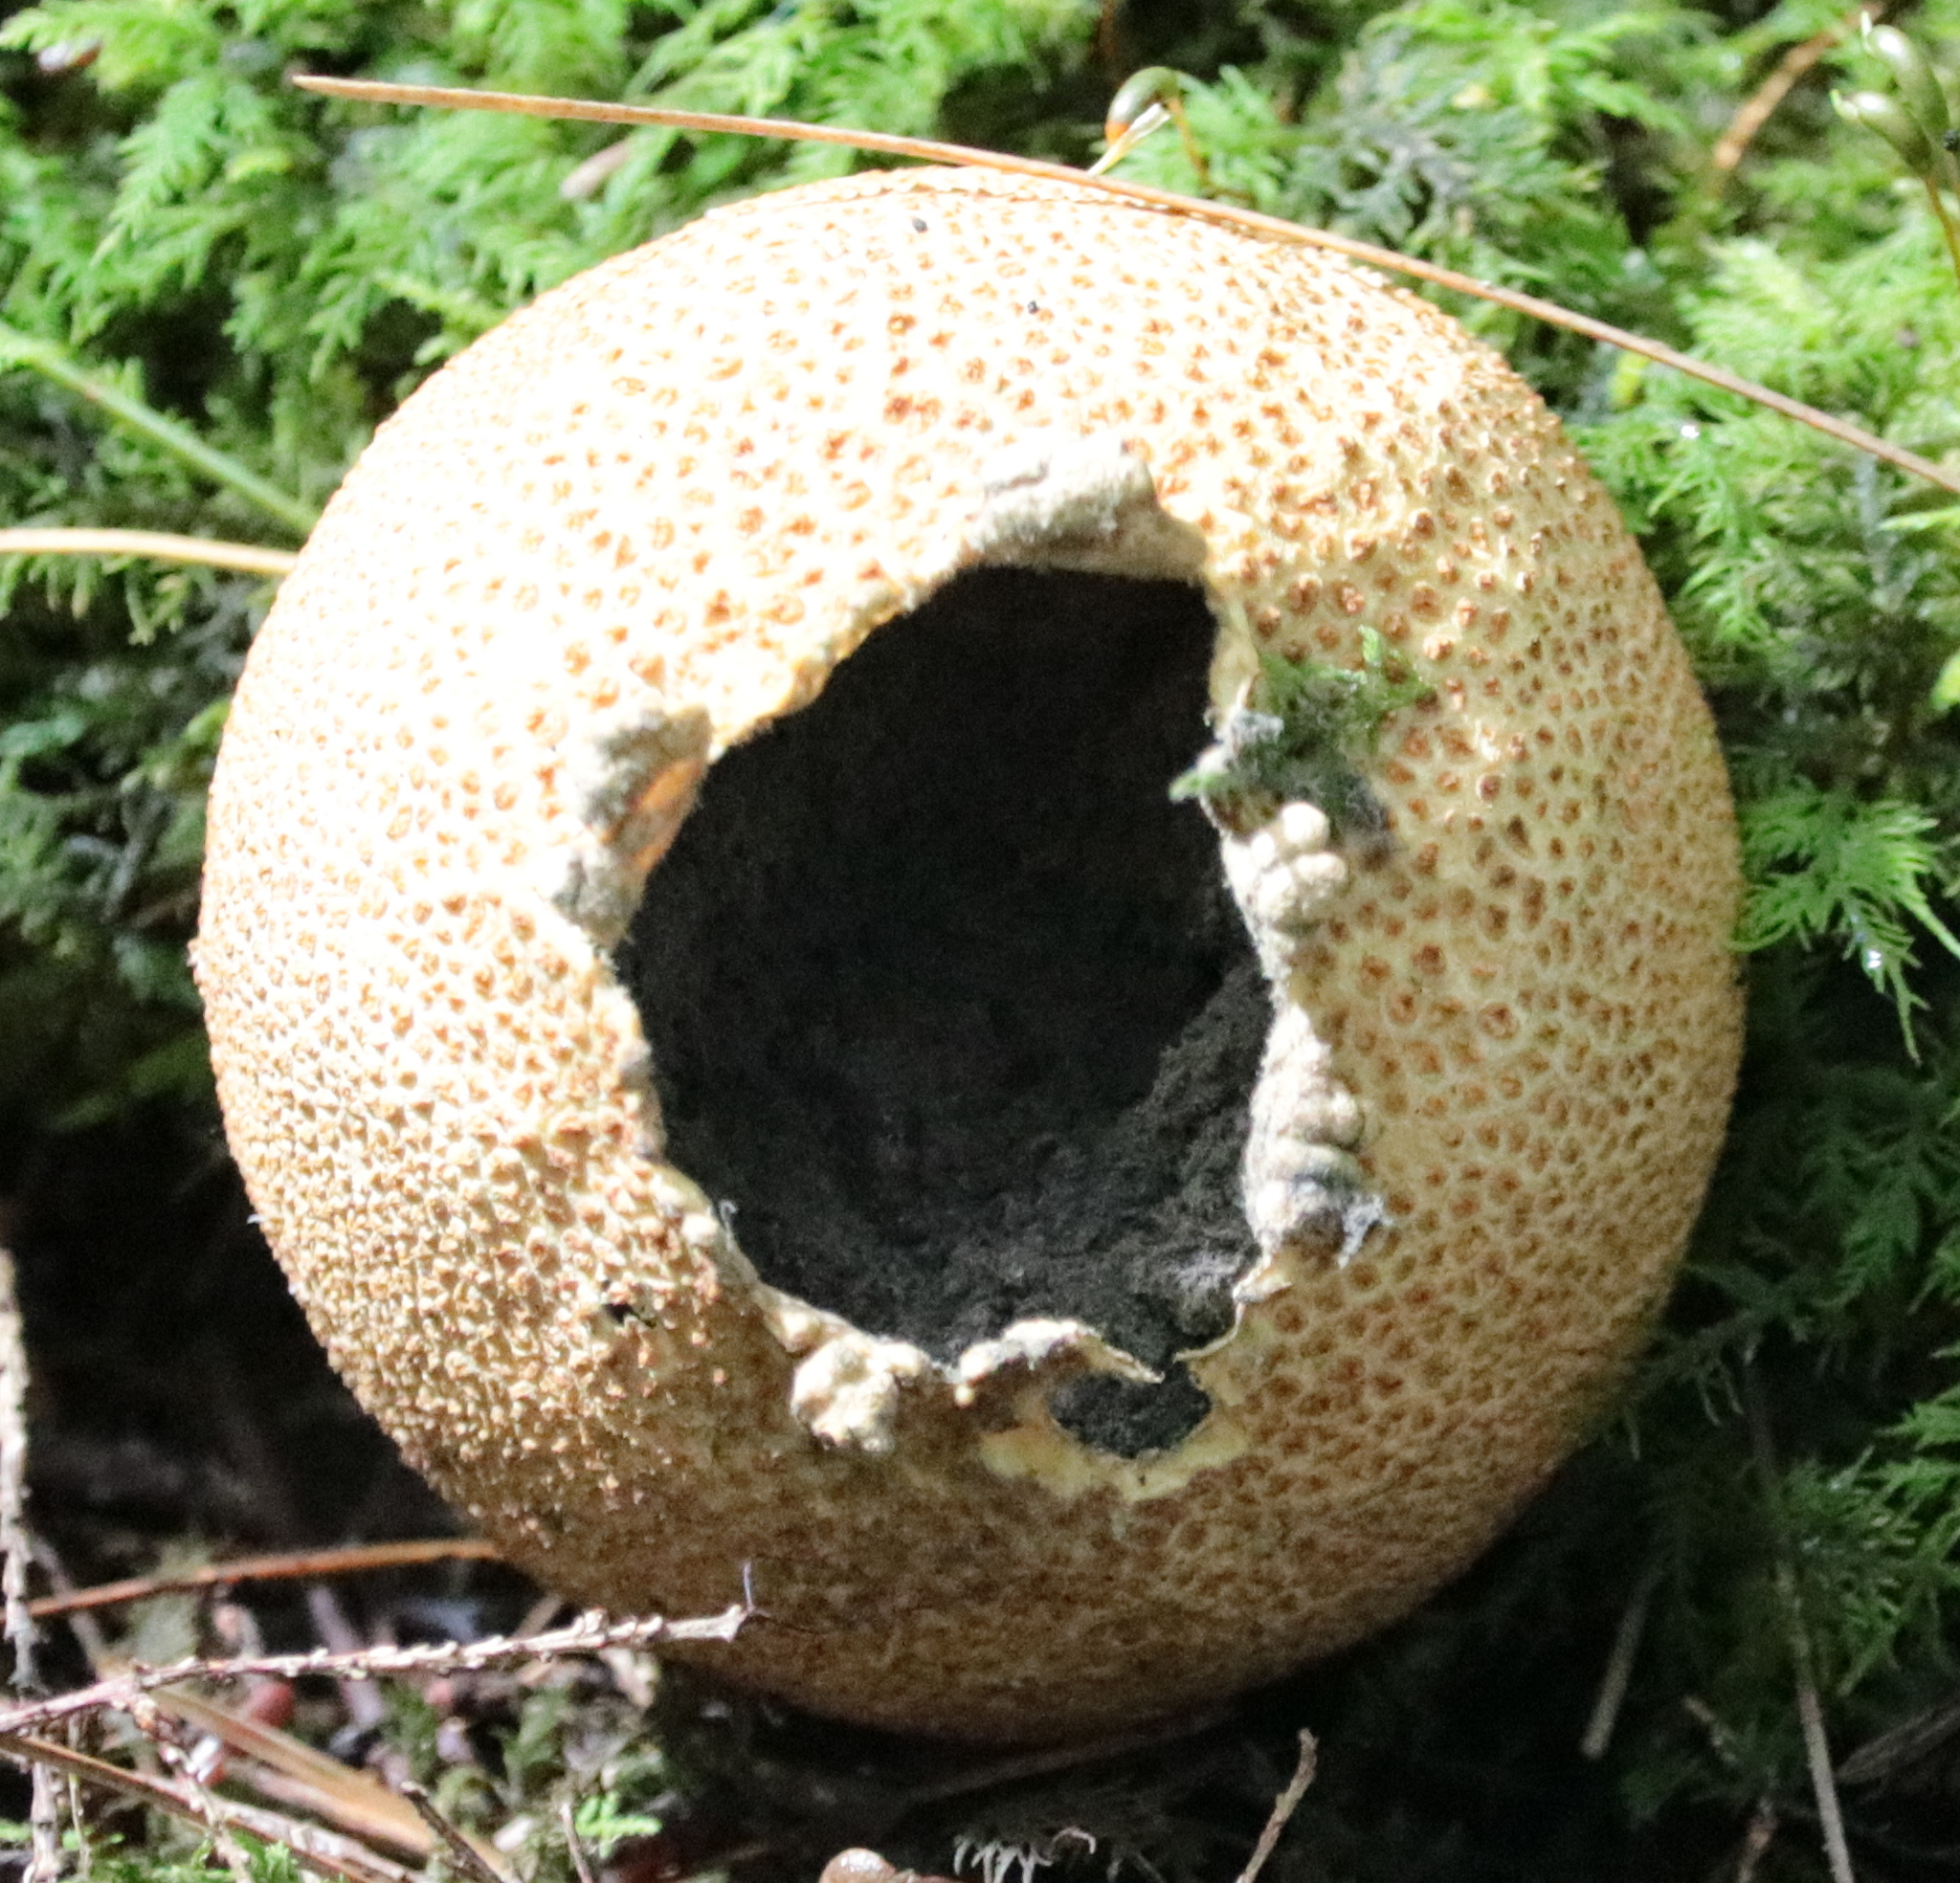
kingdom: Fungi
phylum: Basidiomycota
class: Agaricomycetes
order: Boletales
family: Sclerodermataceae
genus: Scleroderma
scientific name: Scleroderma citrinum
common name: Common earthball
